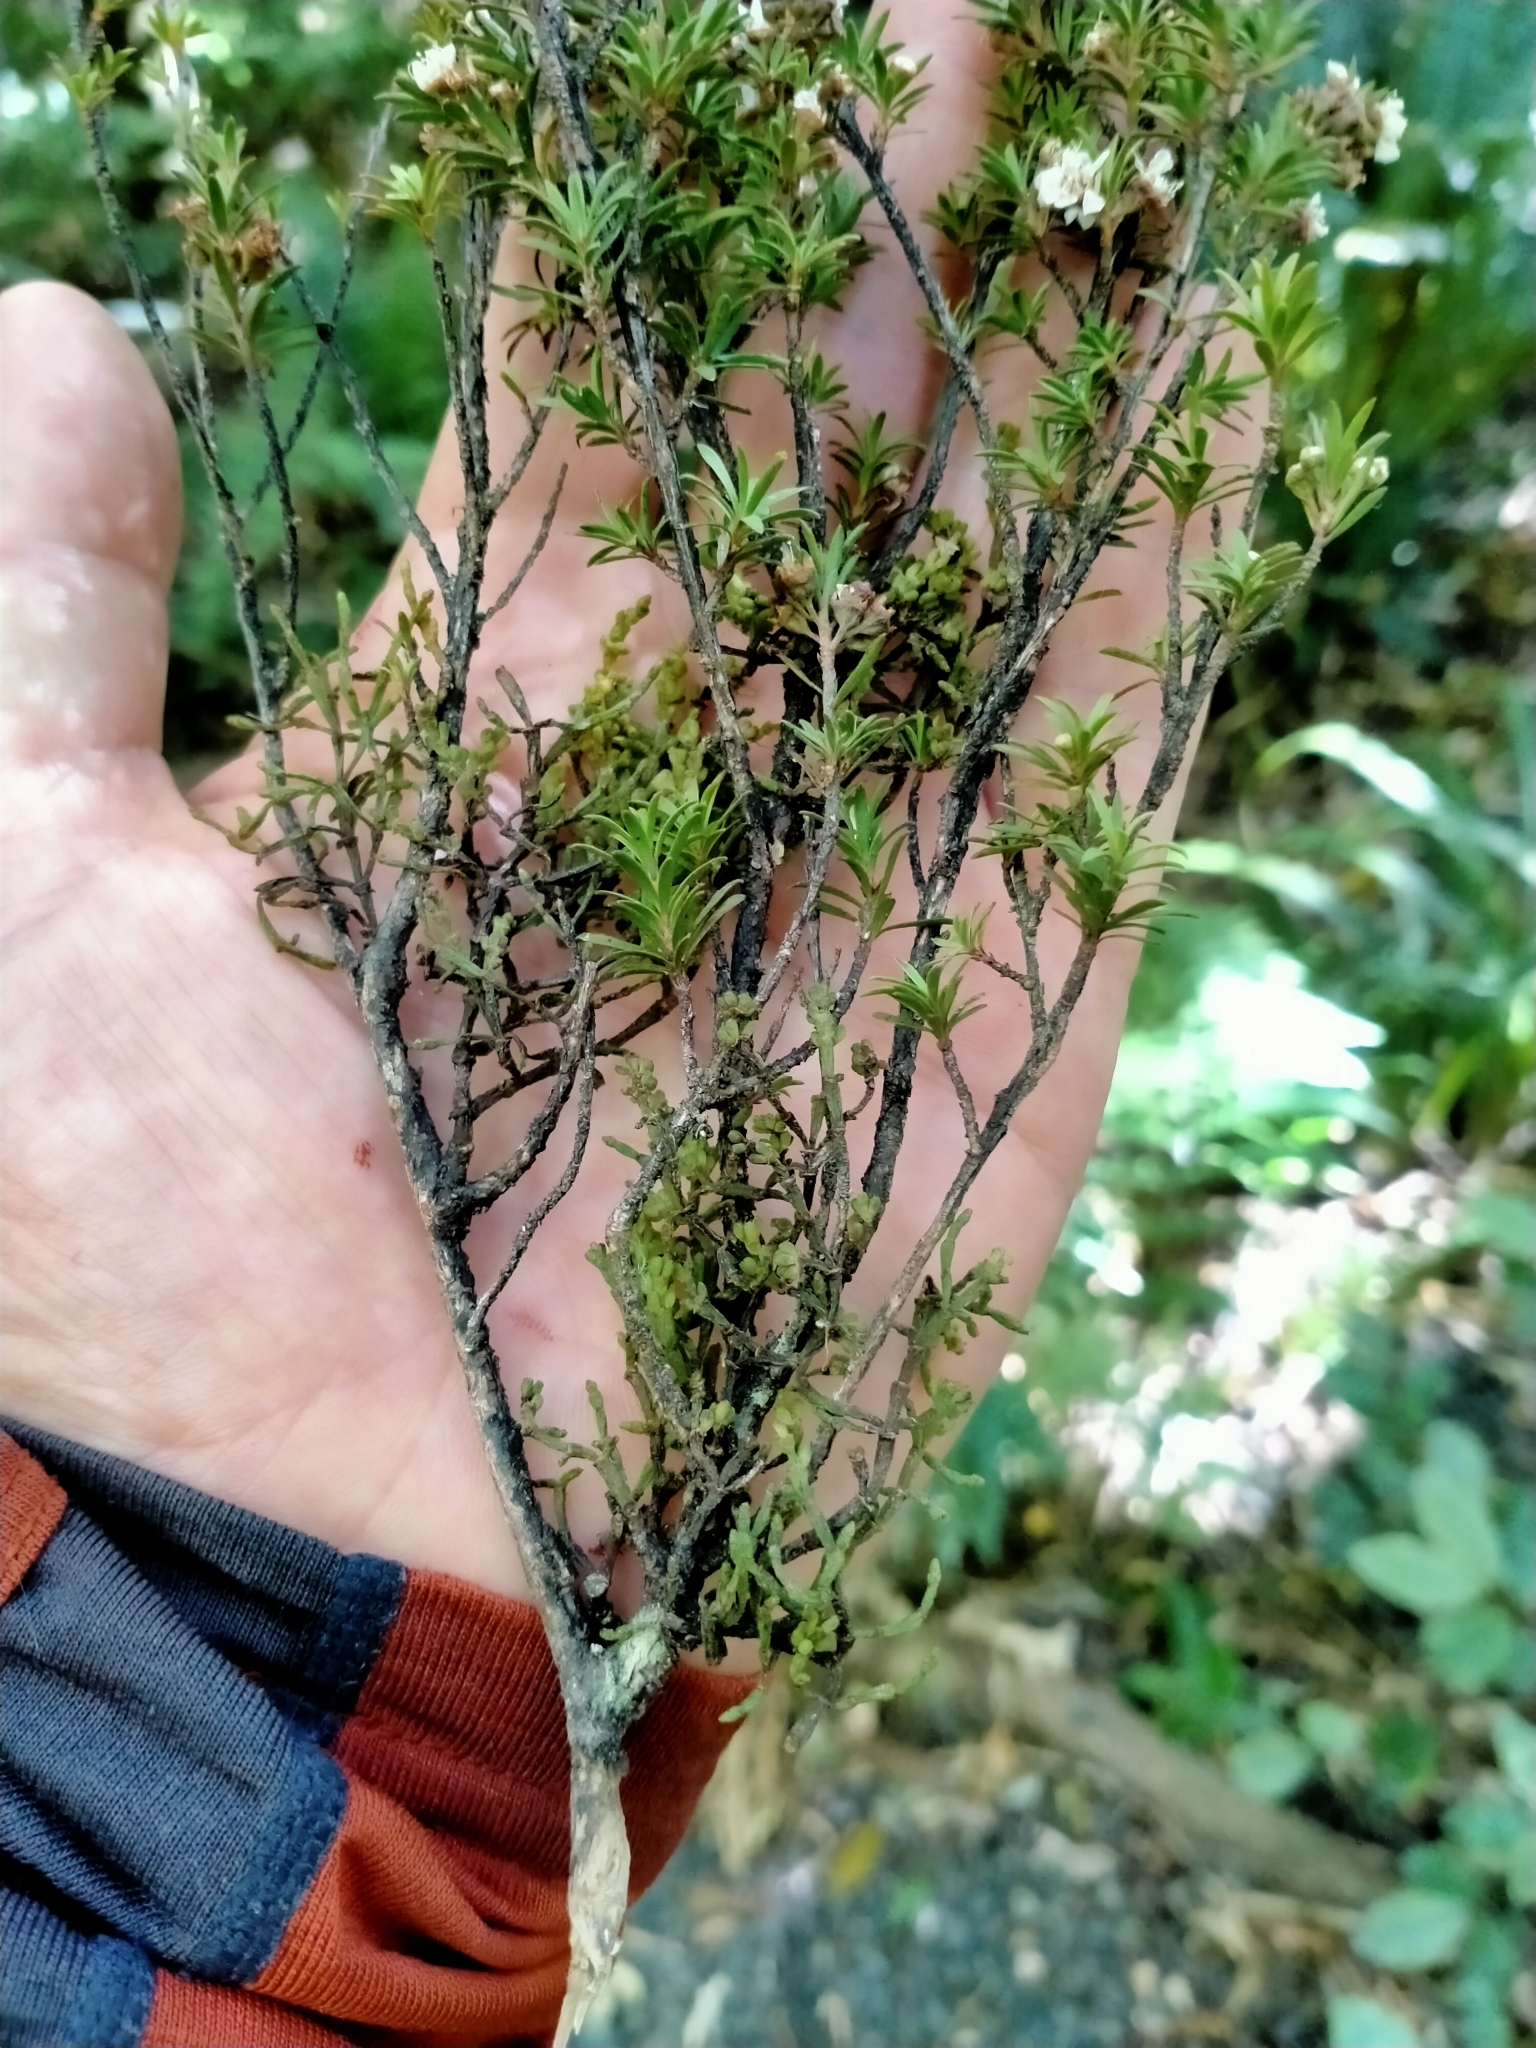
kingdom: Plantae
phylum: Tracheophyta
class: Magnoliopsida
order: Santalales
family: Viscaceae
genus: Korthalsella
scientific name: Korthalsella salicornioides
